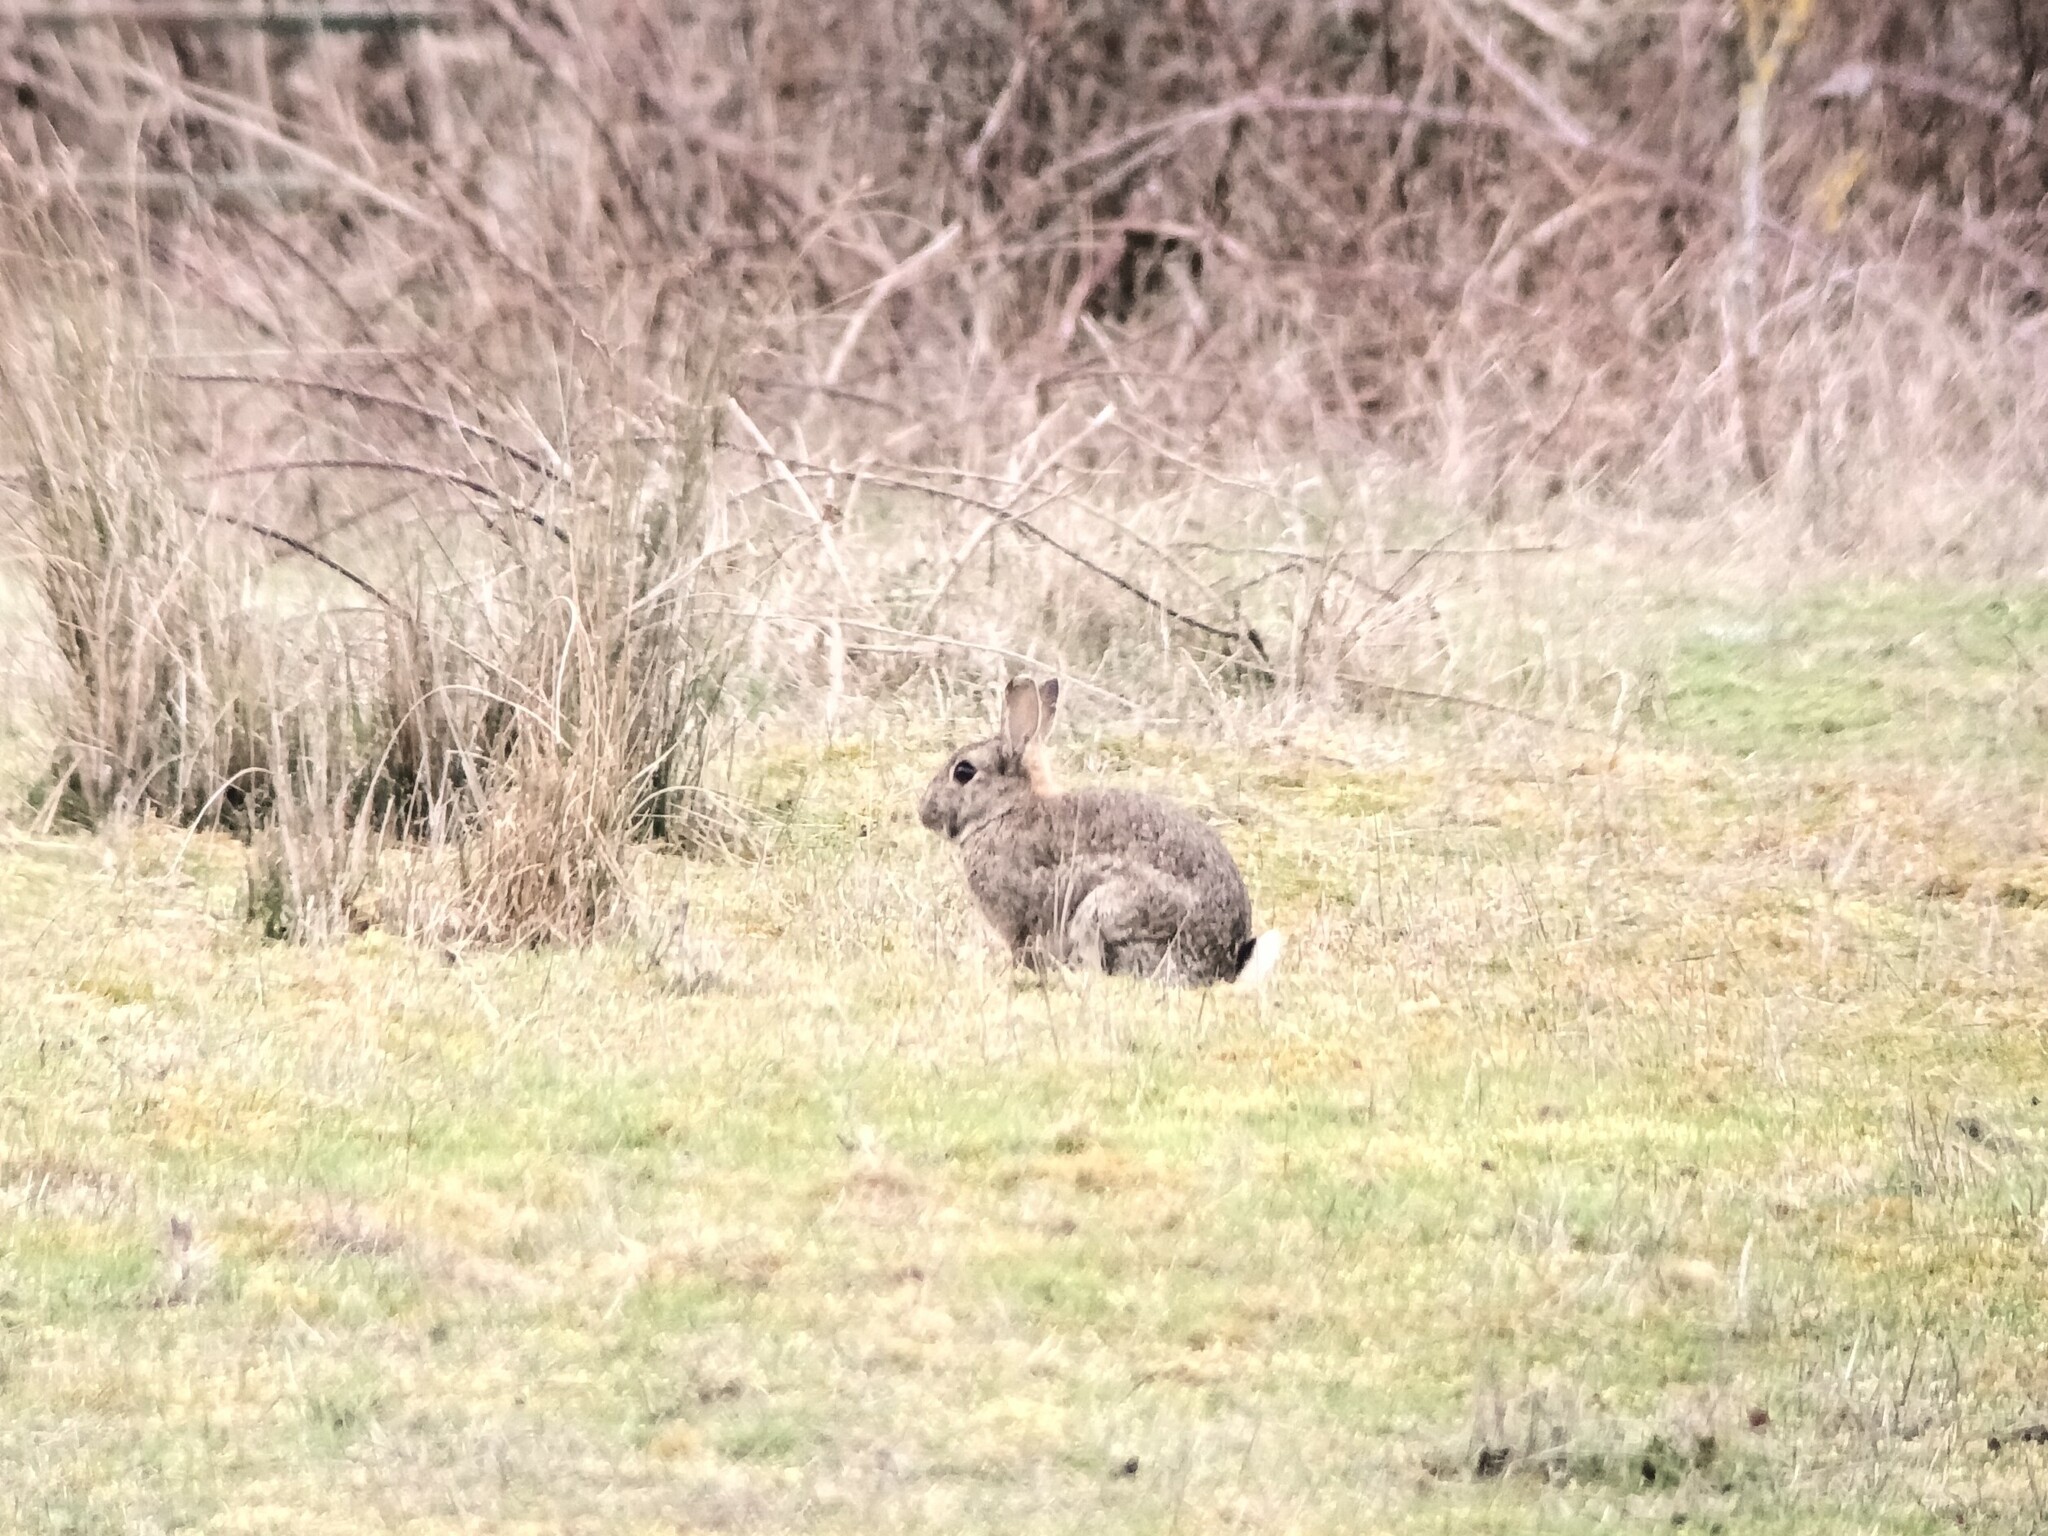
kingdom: Animalia
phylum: Chordata
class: Mammalia
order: Lagomorpha
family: Leporidae
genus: Oryctolagus
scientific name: Oryctolagus cuniculus
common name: European rabbit
